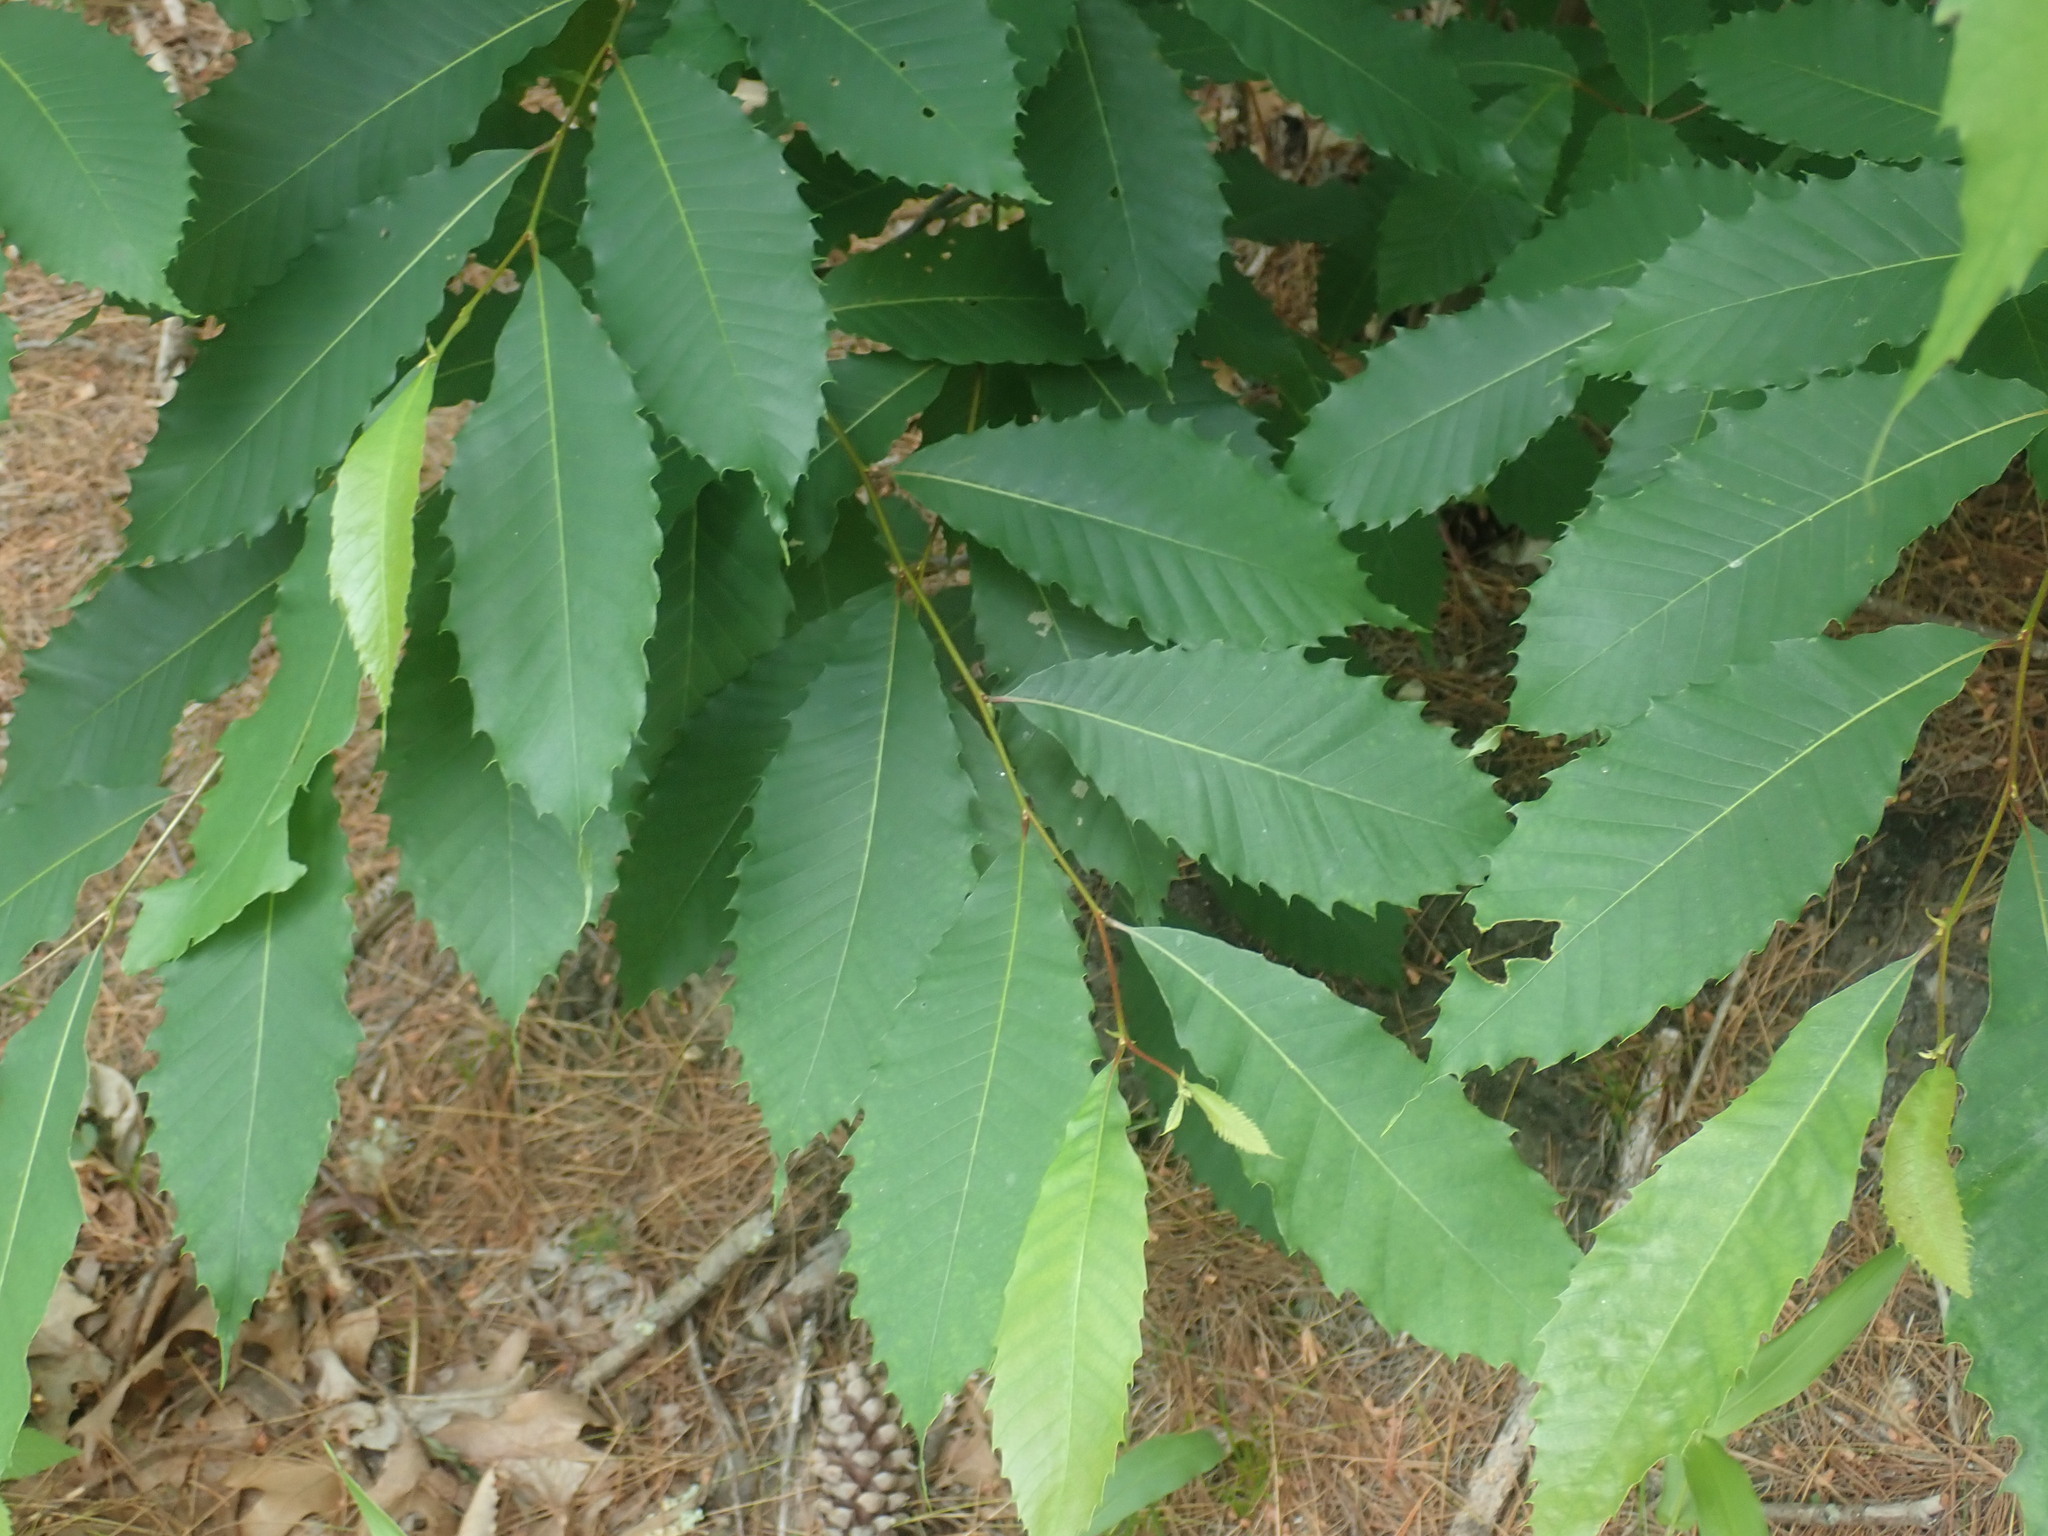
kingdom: Plantae
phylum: Tracheophyta
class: Magnoliopsida
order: Fagales
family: Fagaceae
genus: Castanea
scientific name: Castanea dentata
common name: American chestnut
